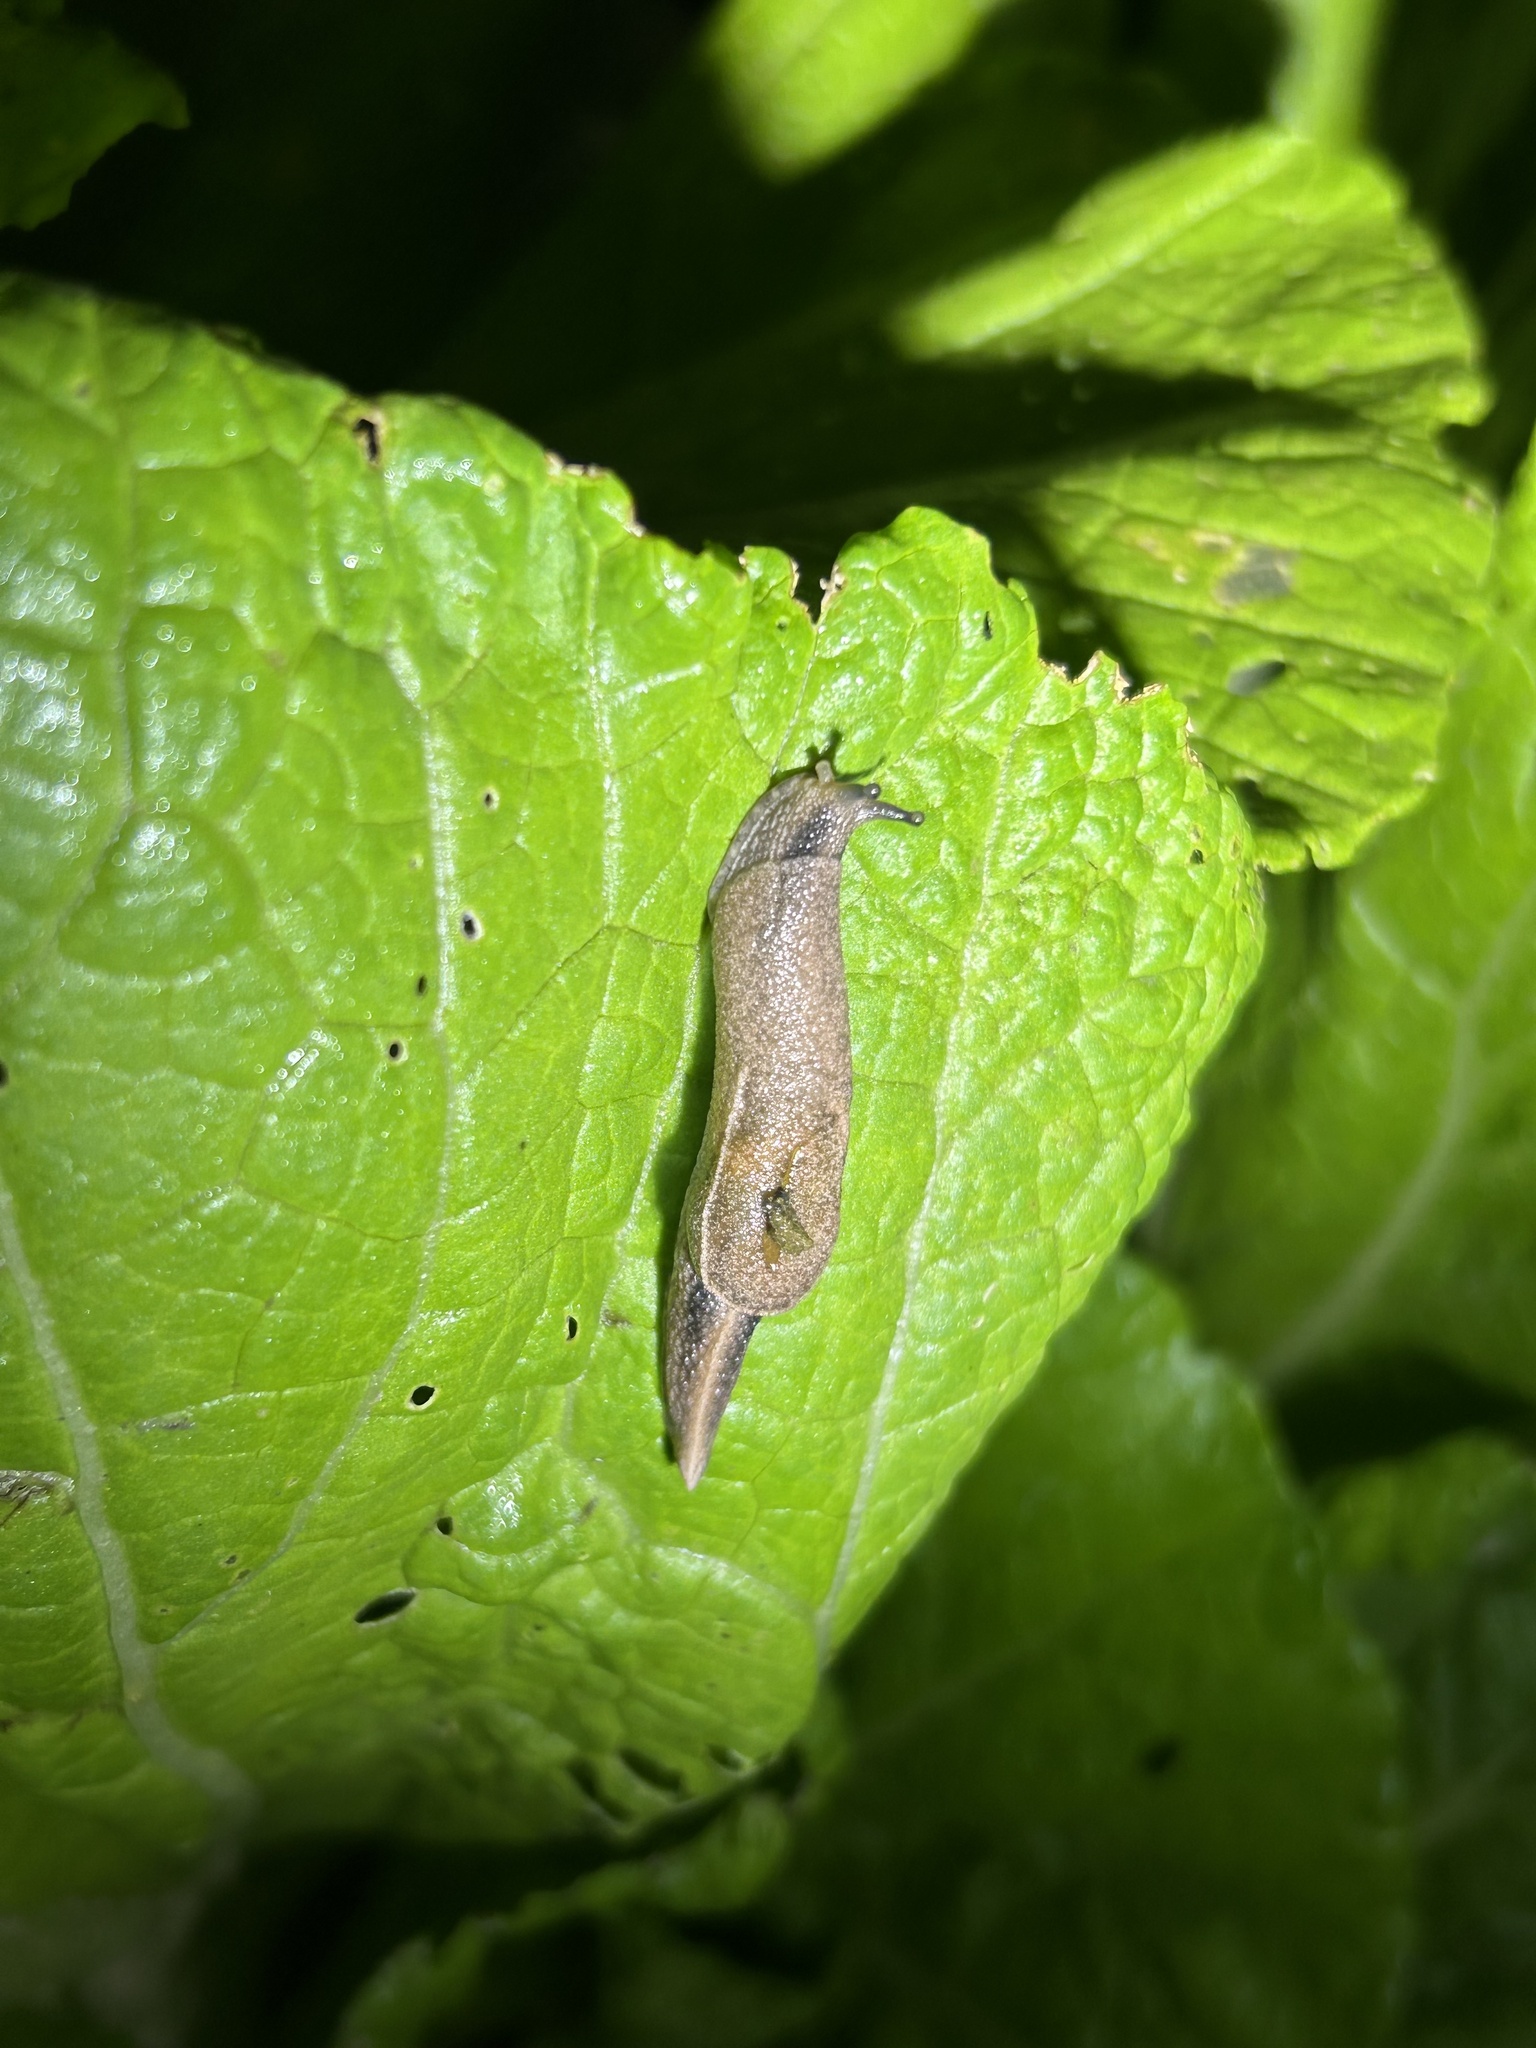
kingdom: Animalia
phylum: Mollusca
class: Gastropoda
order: Stylommatophora
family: Ariophantidae
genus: Parmarion
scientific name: Parmarion martensi
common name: Semi-slug
